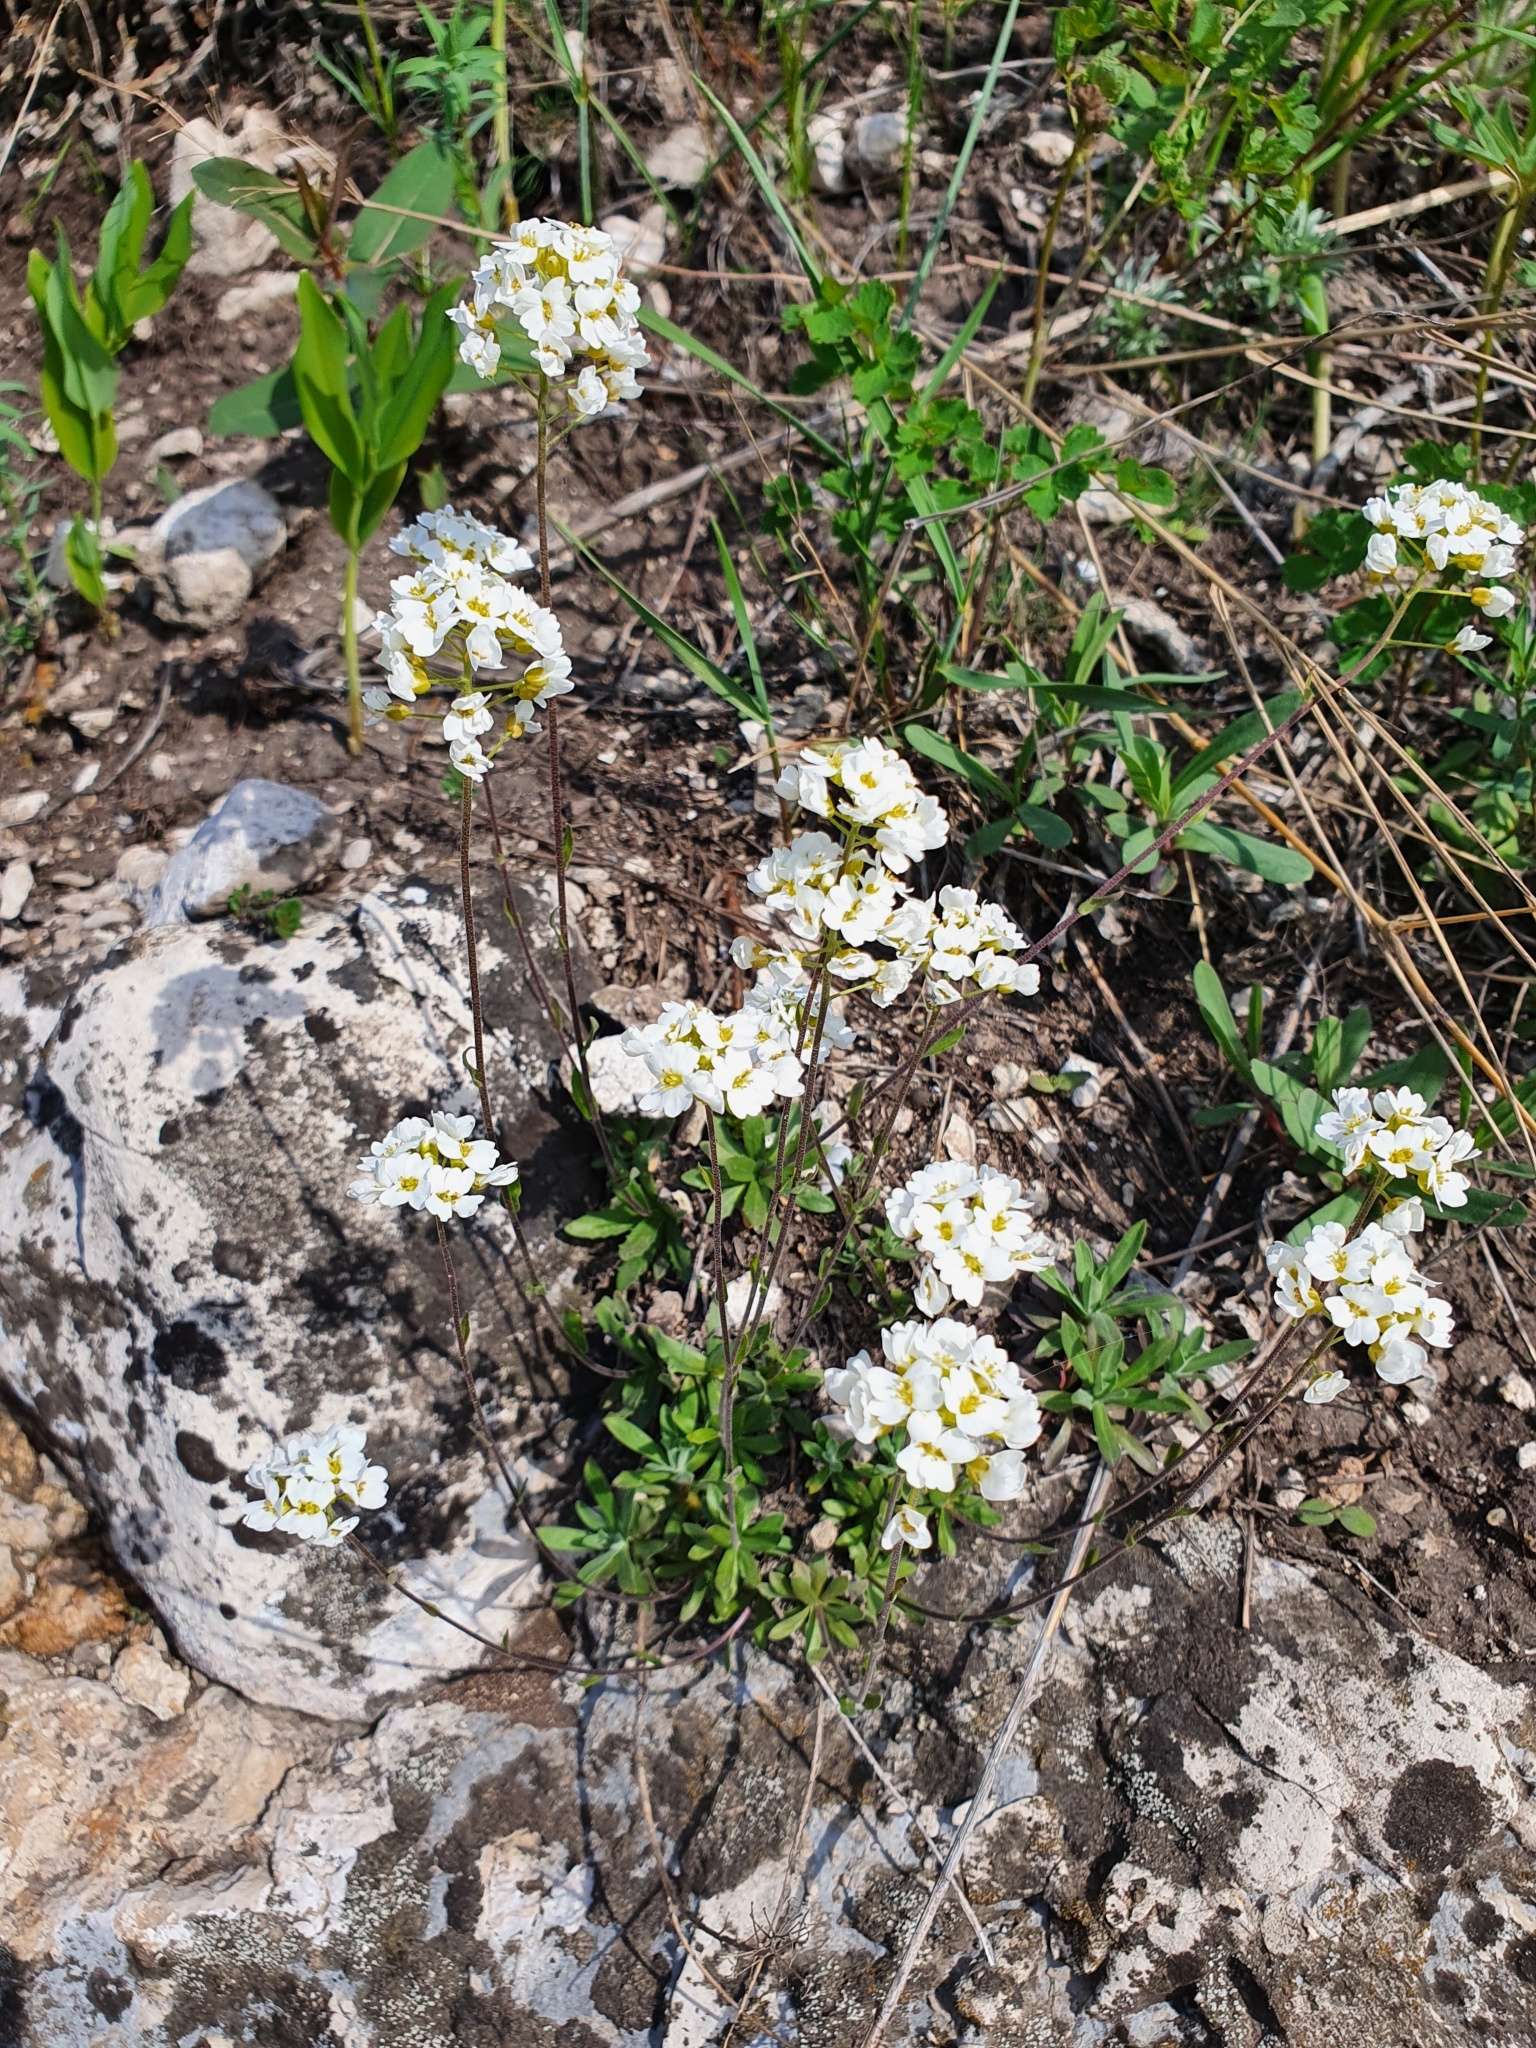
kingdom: Plantae
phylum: Tracheophyta
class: Magnoliopsida
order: Brassicales
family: Brassicaceae
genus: Draba
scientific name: Draba hyperborea
